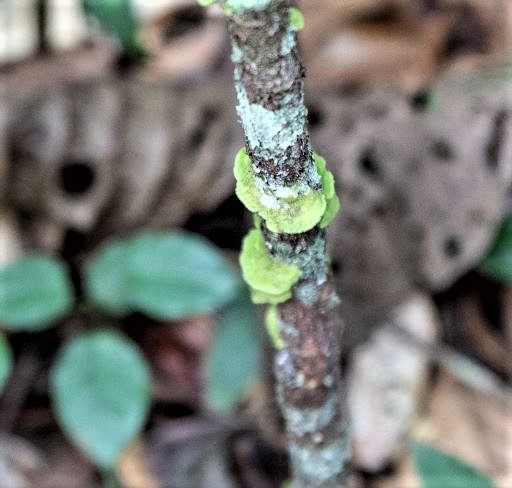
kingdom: Fungi
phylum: Ascomycota
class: Lecanoromycetes
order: Ostropales
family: Coenogoniaceae
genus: Coenogonium
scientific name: Coenogonium
